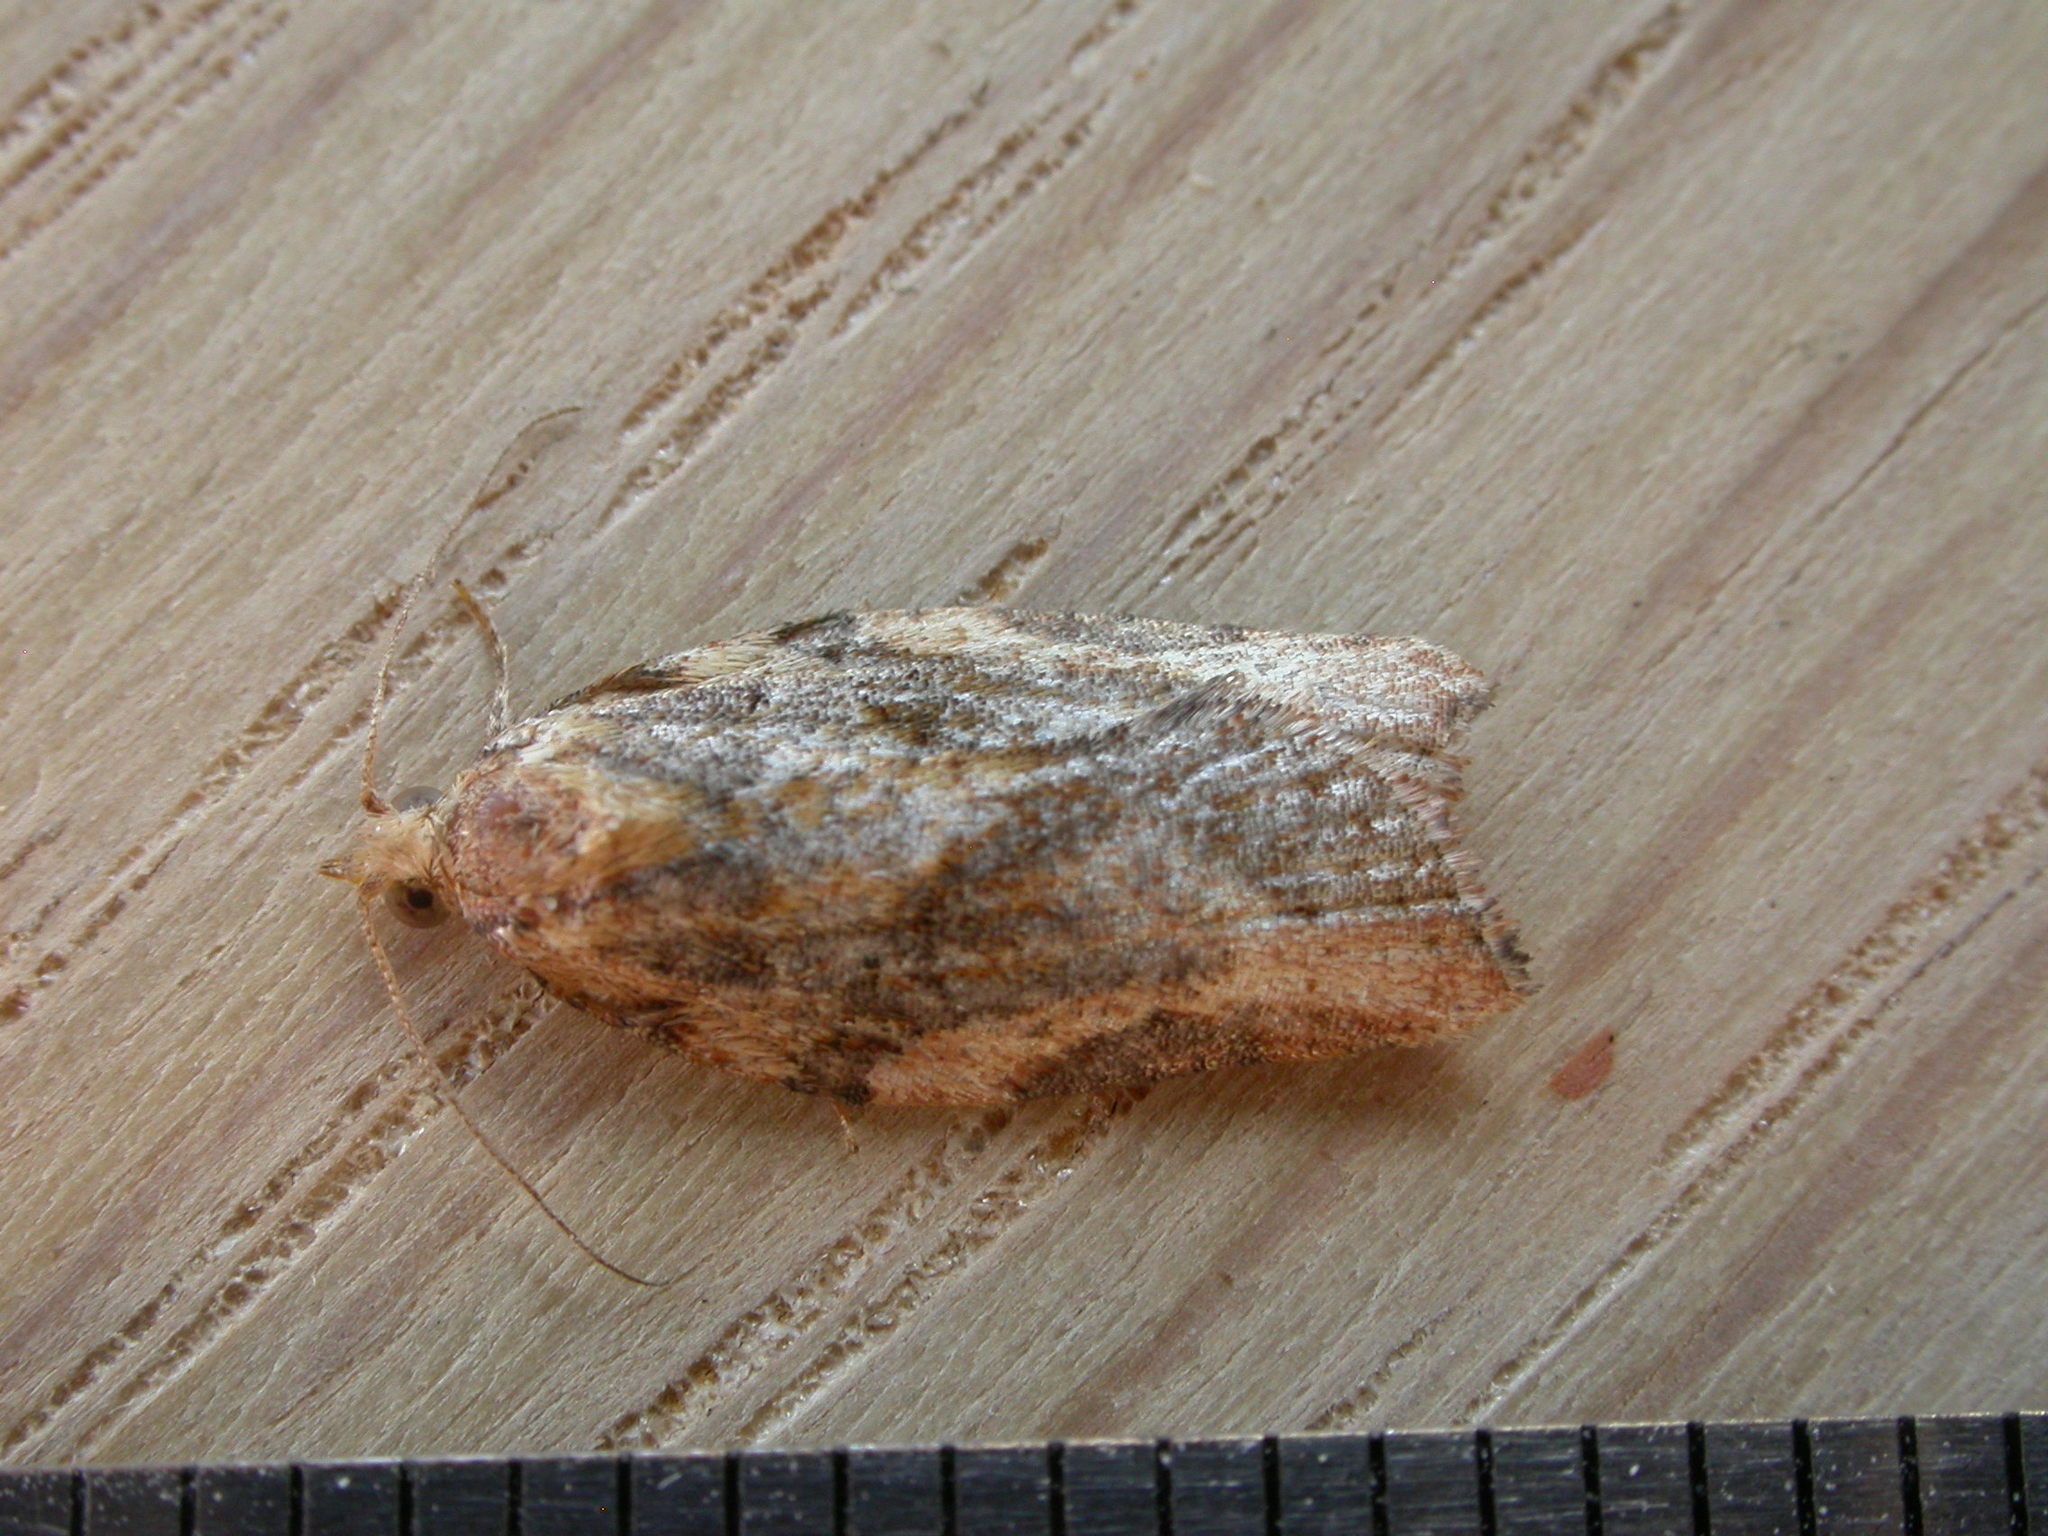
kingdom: Animalia
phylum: Arthropoda
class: Insecta
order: Lepidoptera
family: Tortricidae
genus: Epiphyas
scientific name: Epiphyas postvittana
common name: Light brown apple moth
